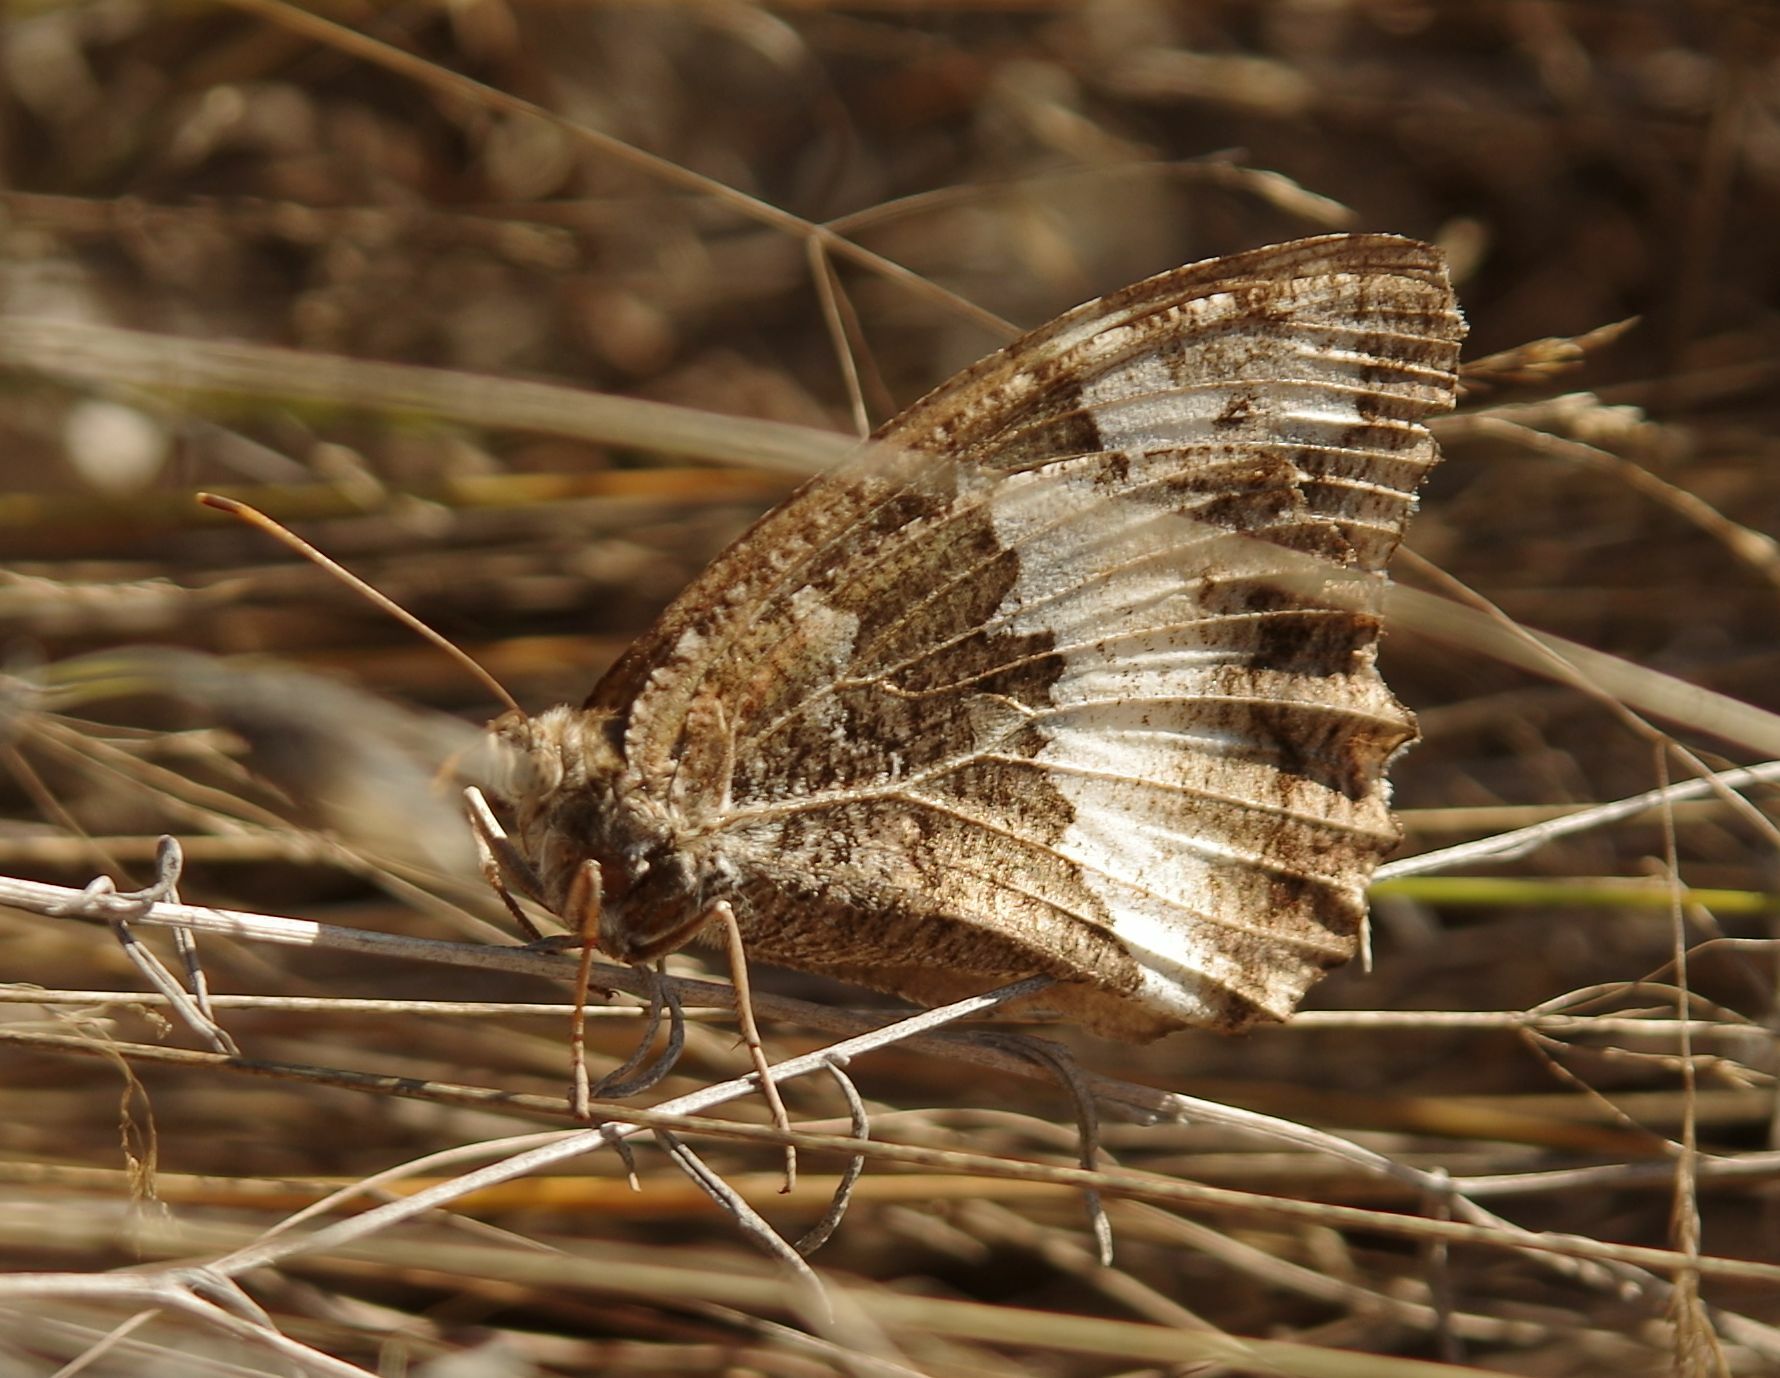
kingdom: Animalia
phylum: Arthropoda
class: Insecta
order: Lepidoptera
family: Lycaenidae
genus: Loweia
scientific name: Loweia tityrus
